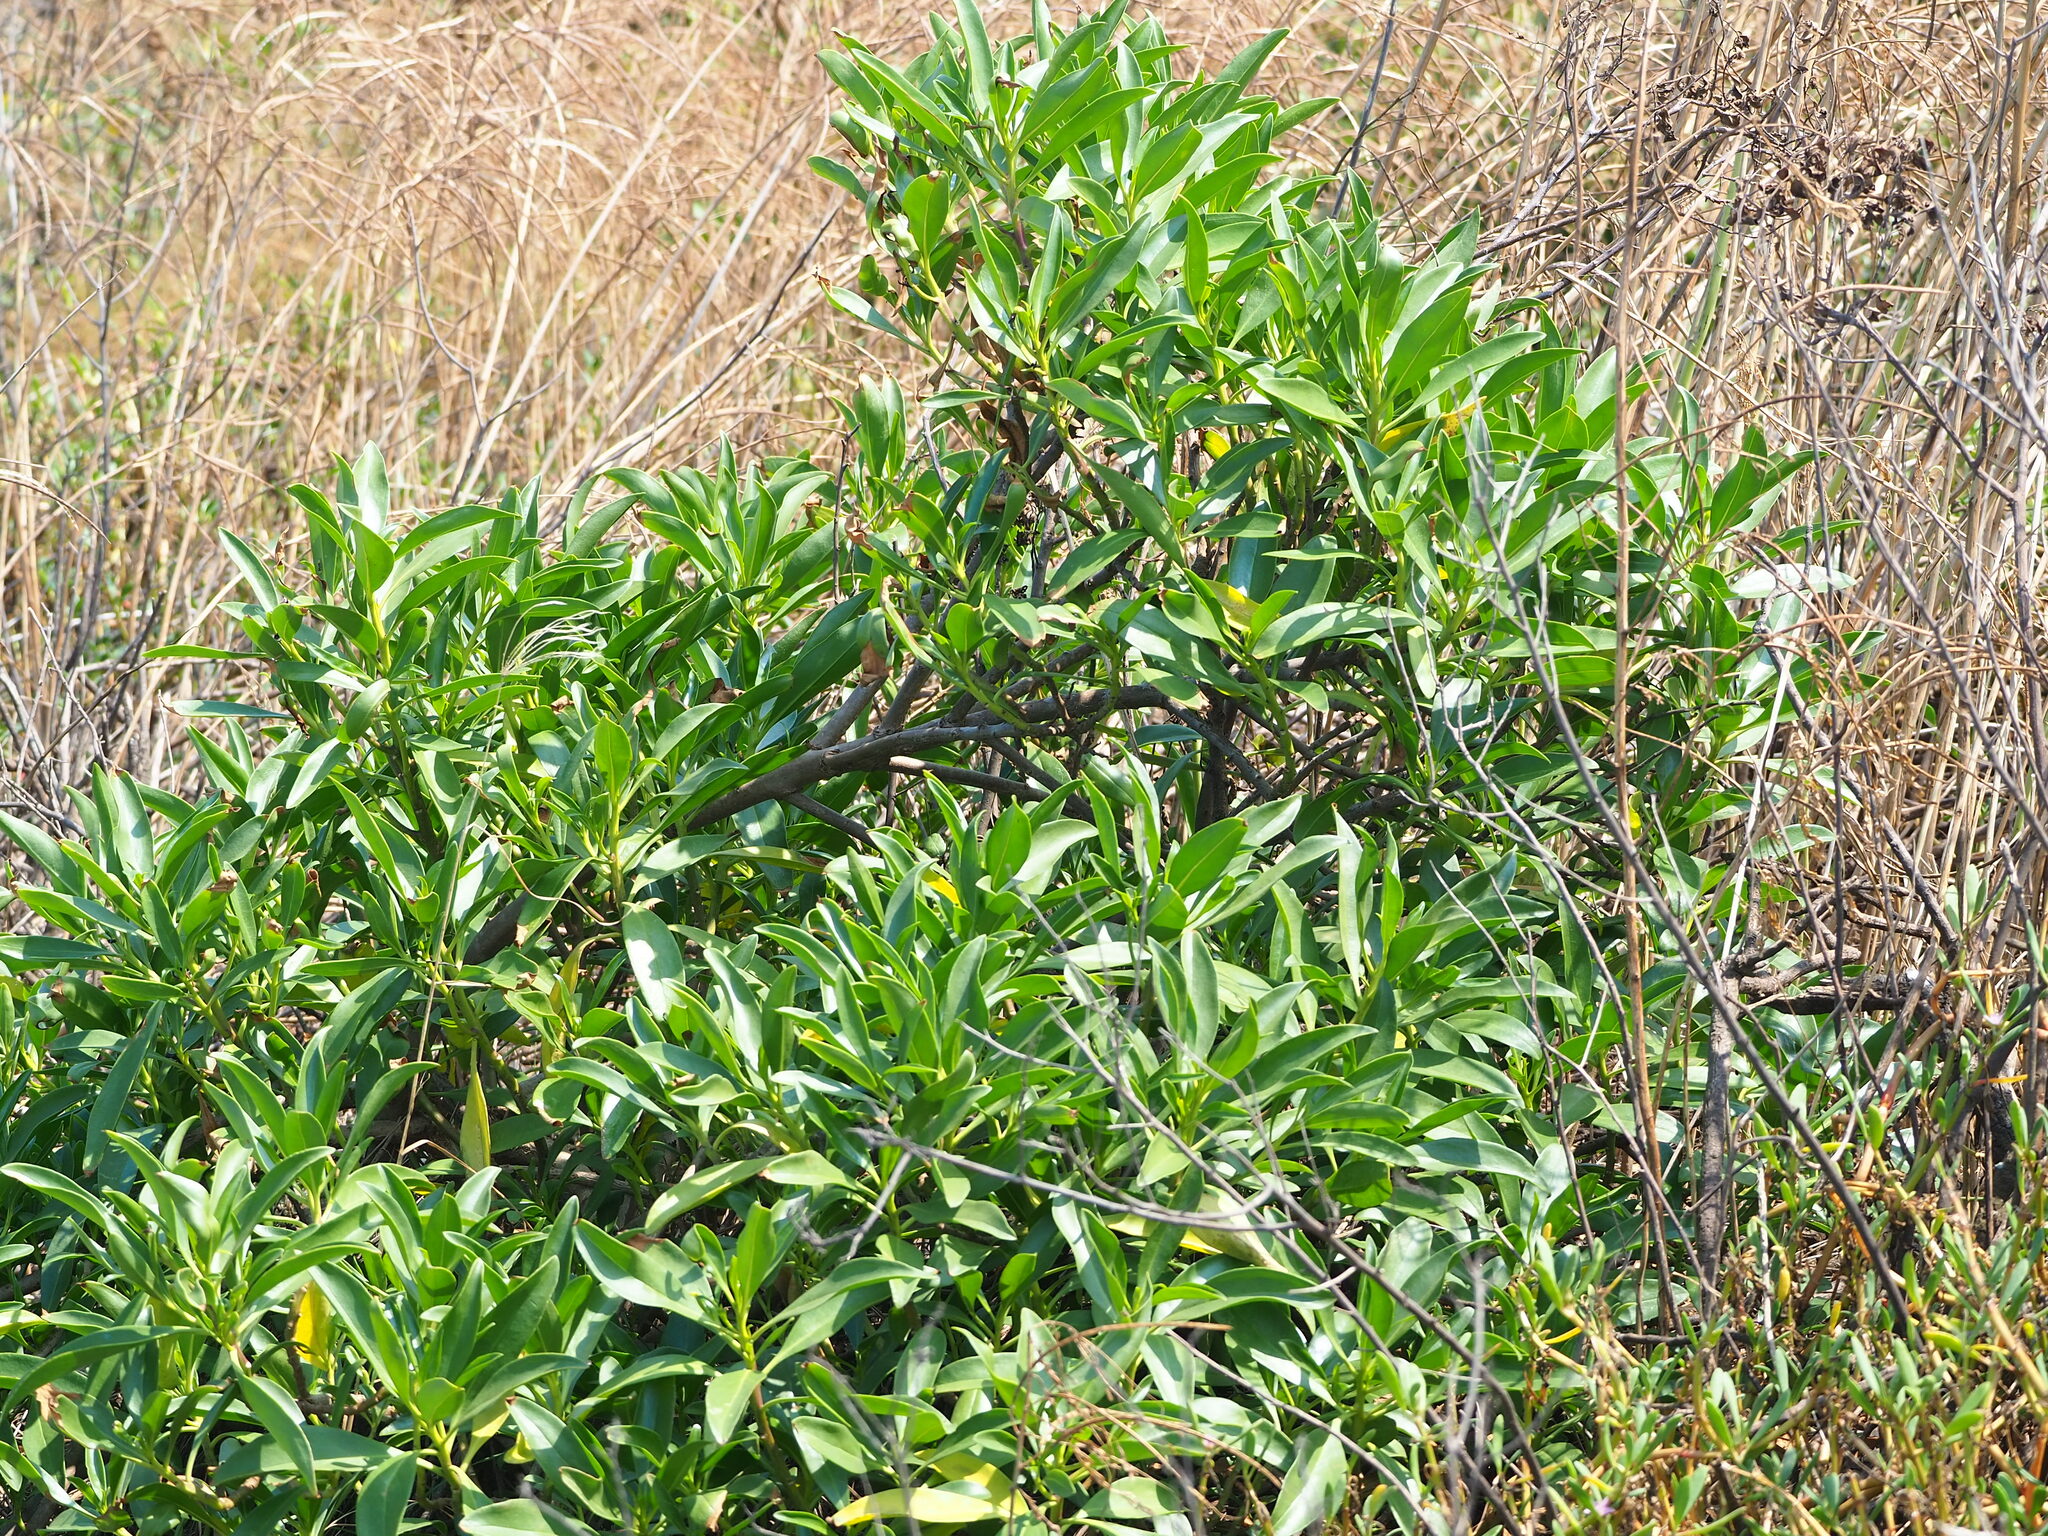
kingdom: Plantae
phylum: Tracheophyta
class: Magnoliopsida
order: Lamiales
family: Scrophulariaceae
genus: Myoporum
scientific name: Myoporum bontioides
